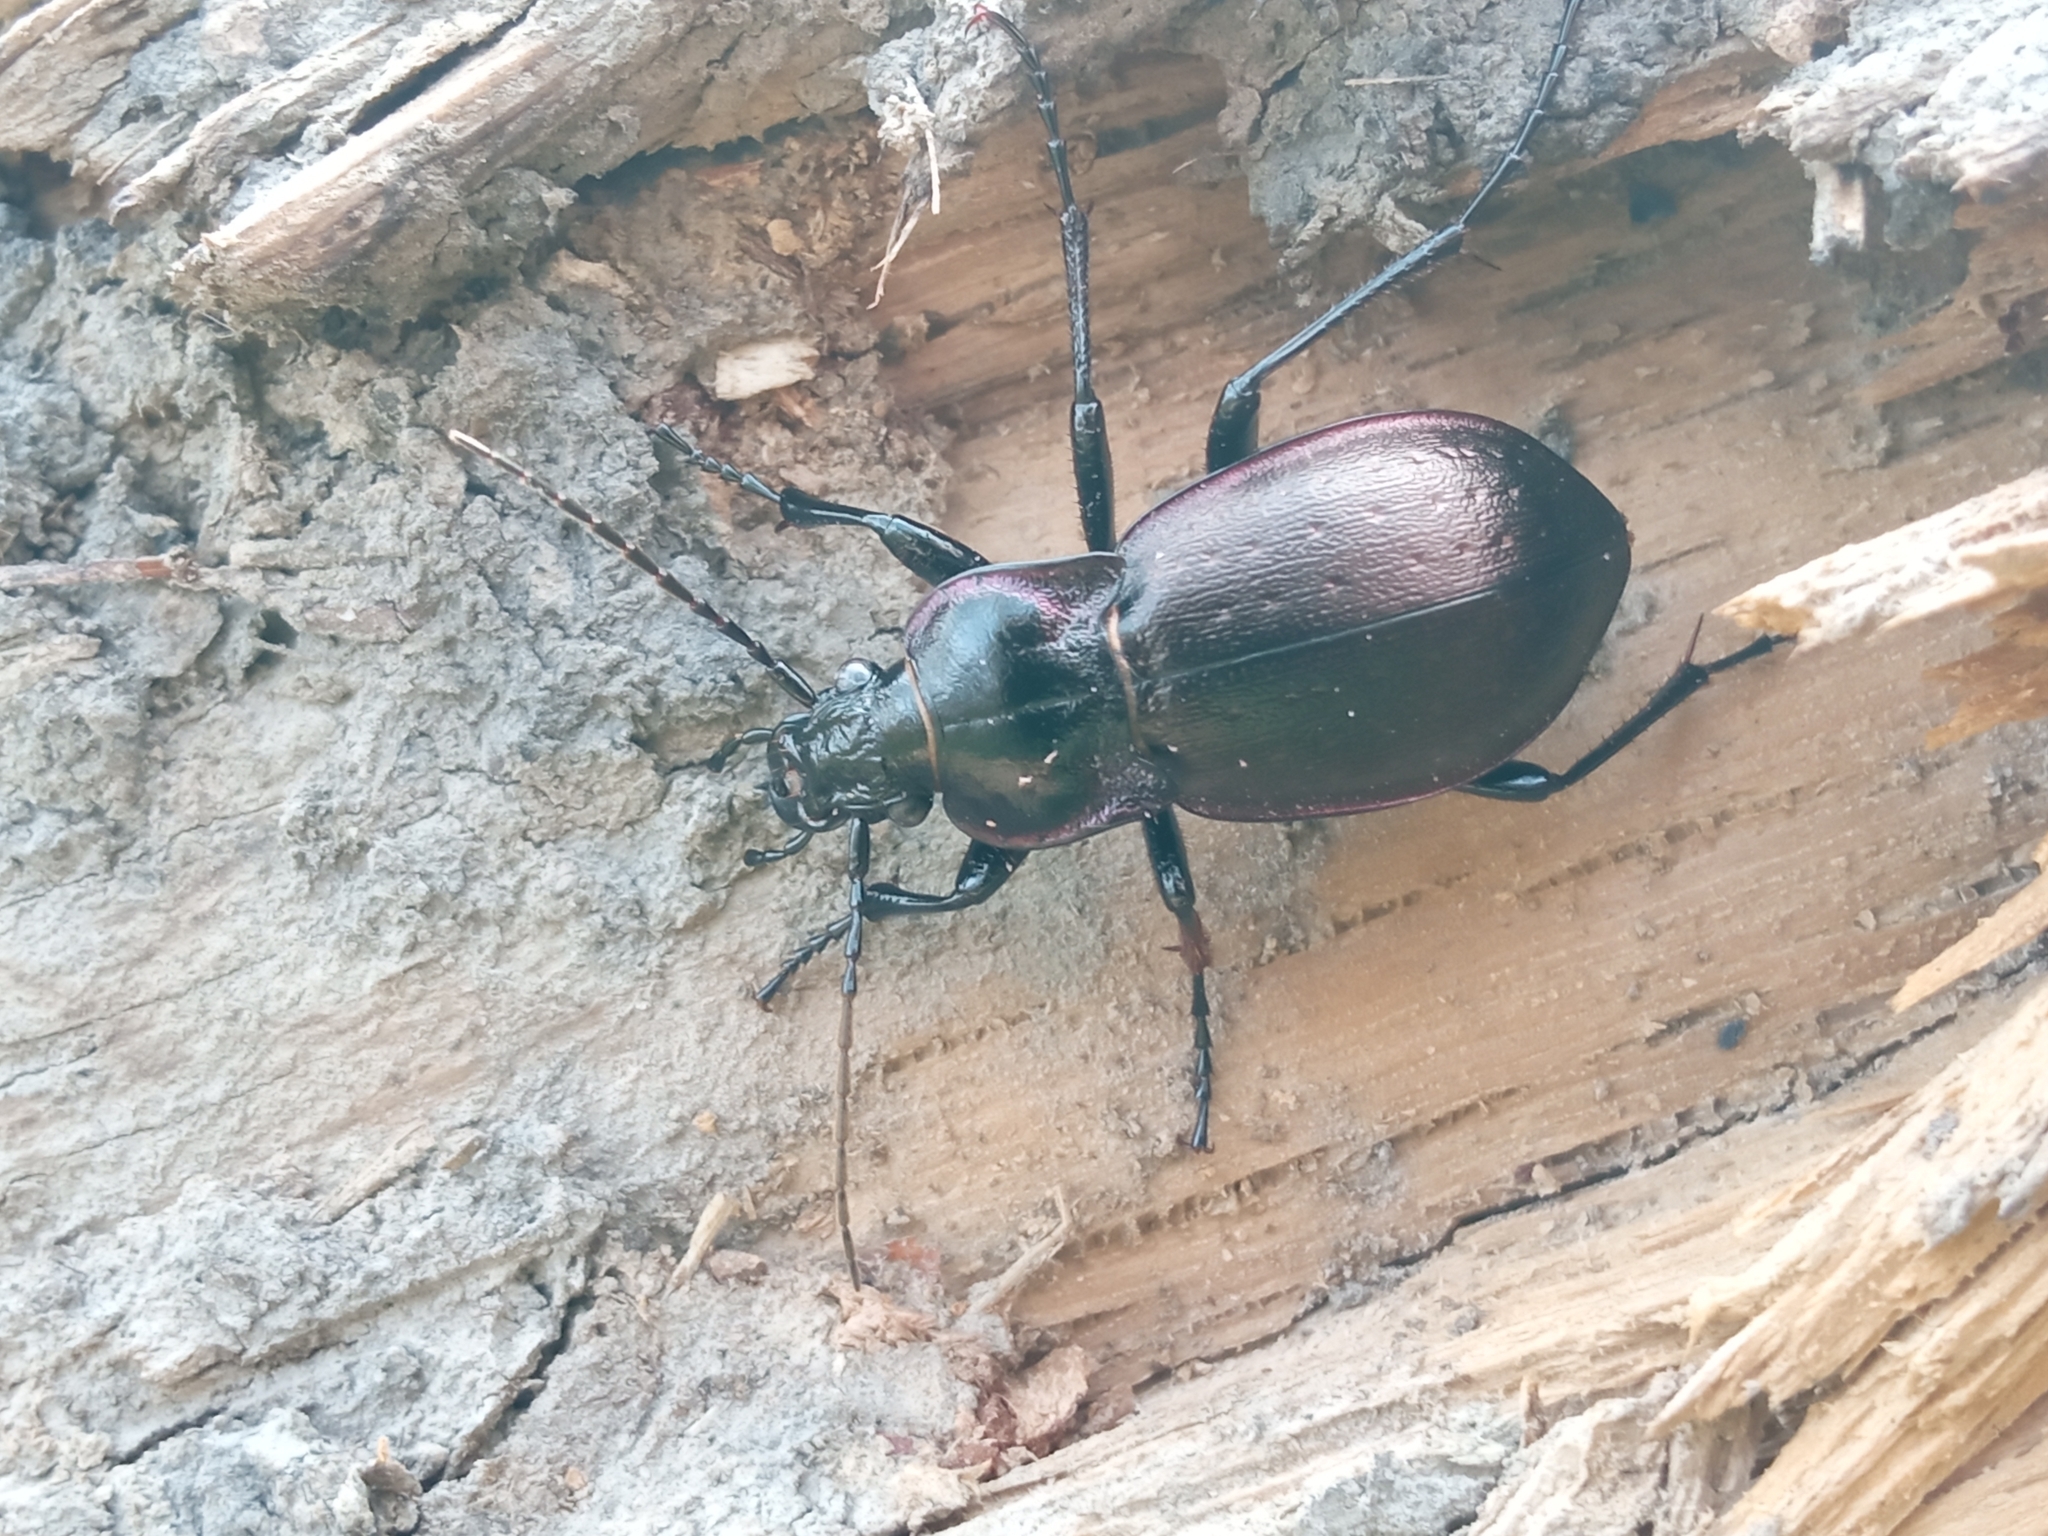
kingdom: Animalia
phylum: Arthropoda
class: Insecta
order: Coleoptera
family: Carabidae
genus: Carabus
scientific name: Carabus nemoralis
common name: European ground beetle
